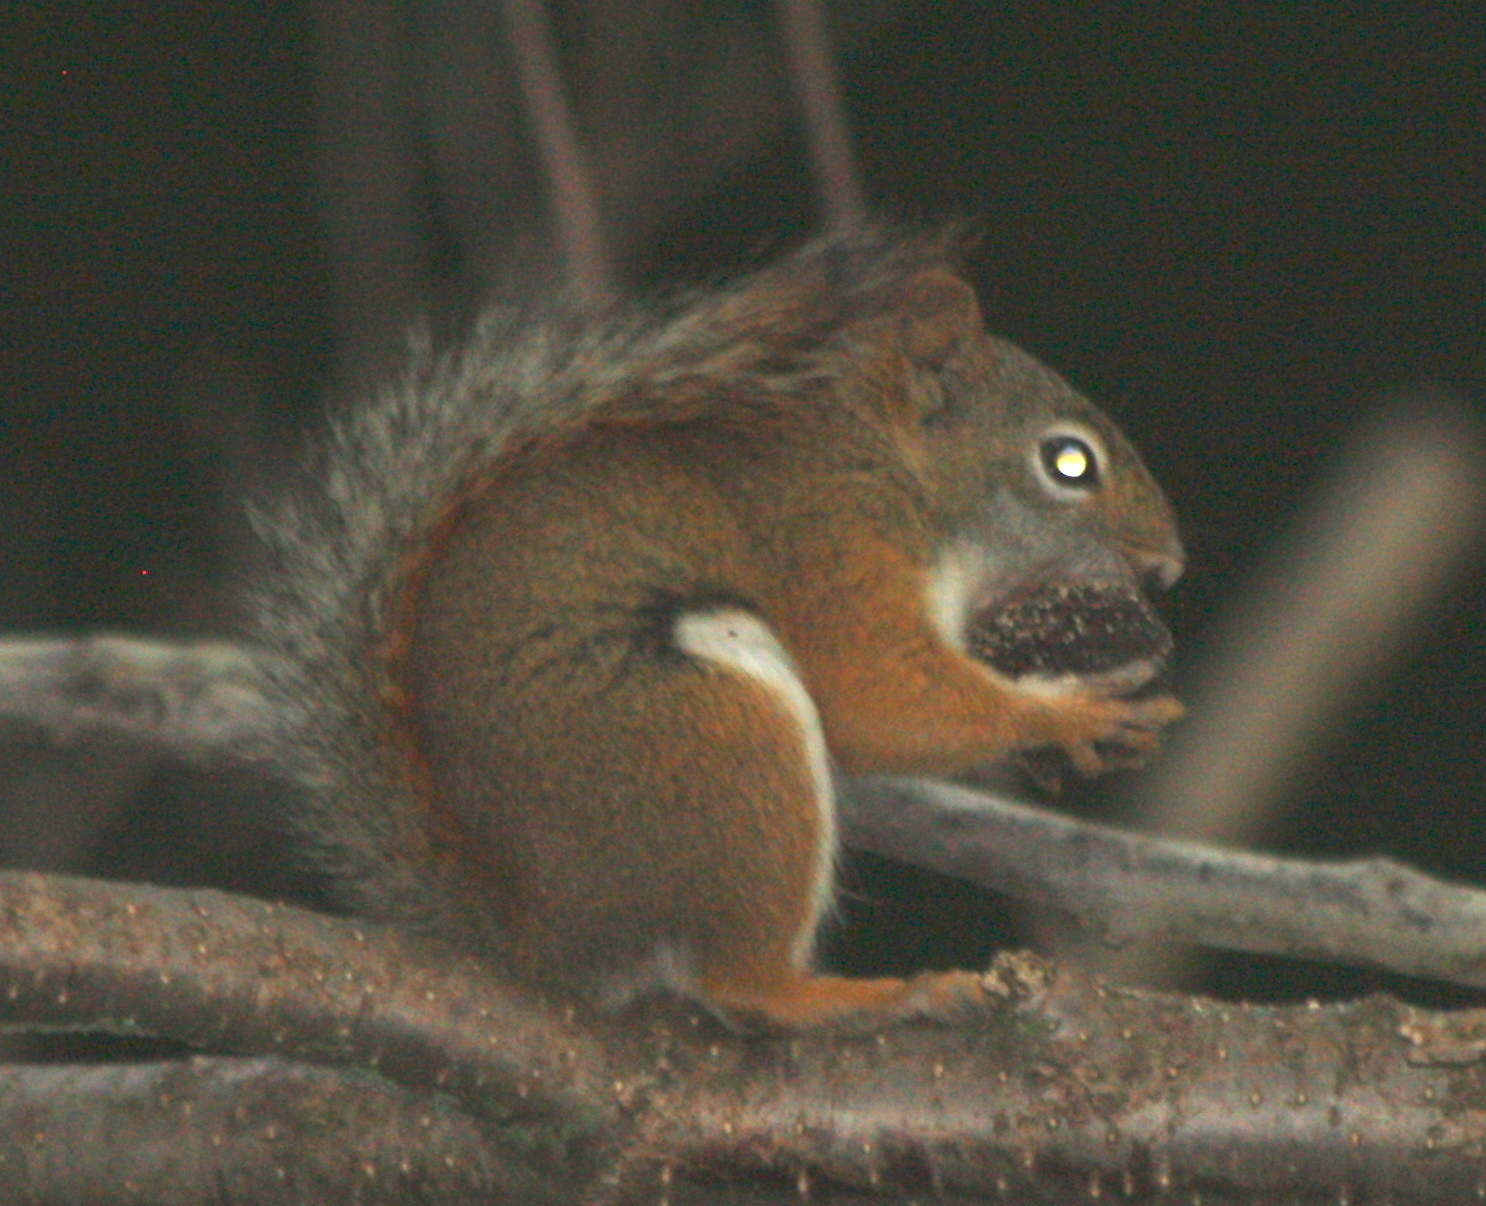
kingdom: Animalia
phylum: Chordata
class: Mammalia
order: Rodentia
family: Sciuridae
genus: Tamiasciurus
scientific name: Tamiasciurus hudsonicus
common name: Red squirrel
